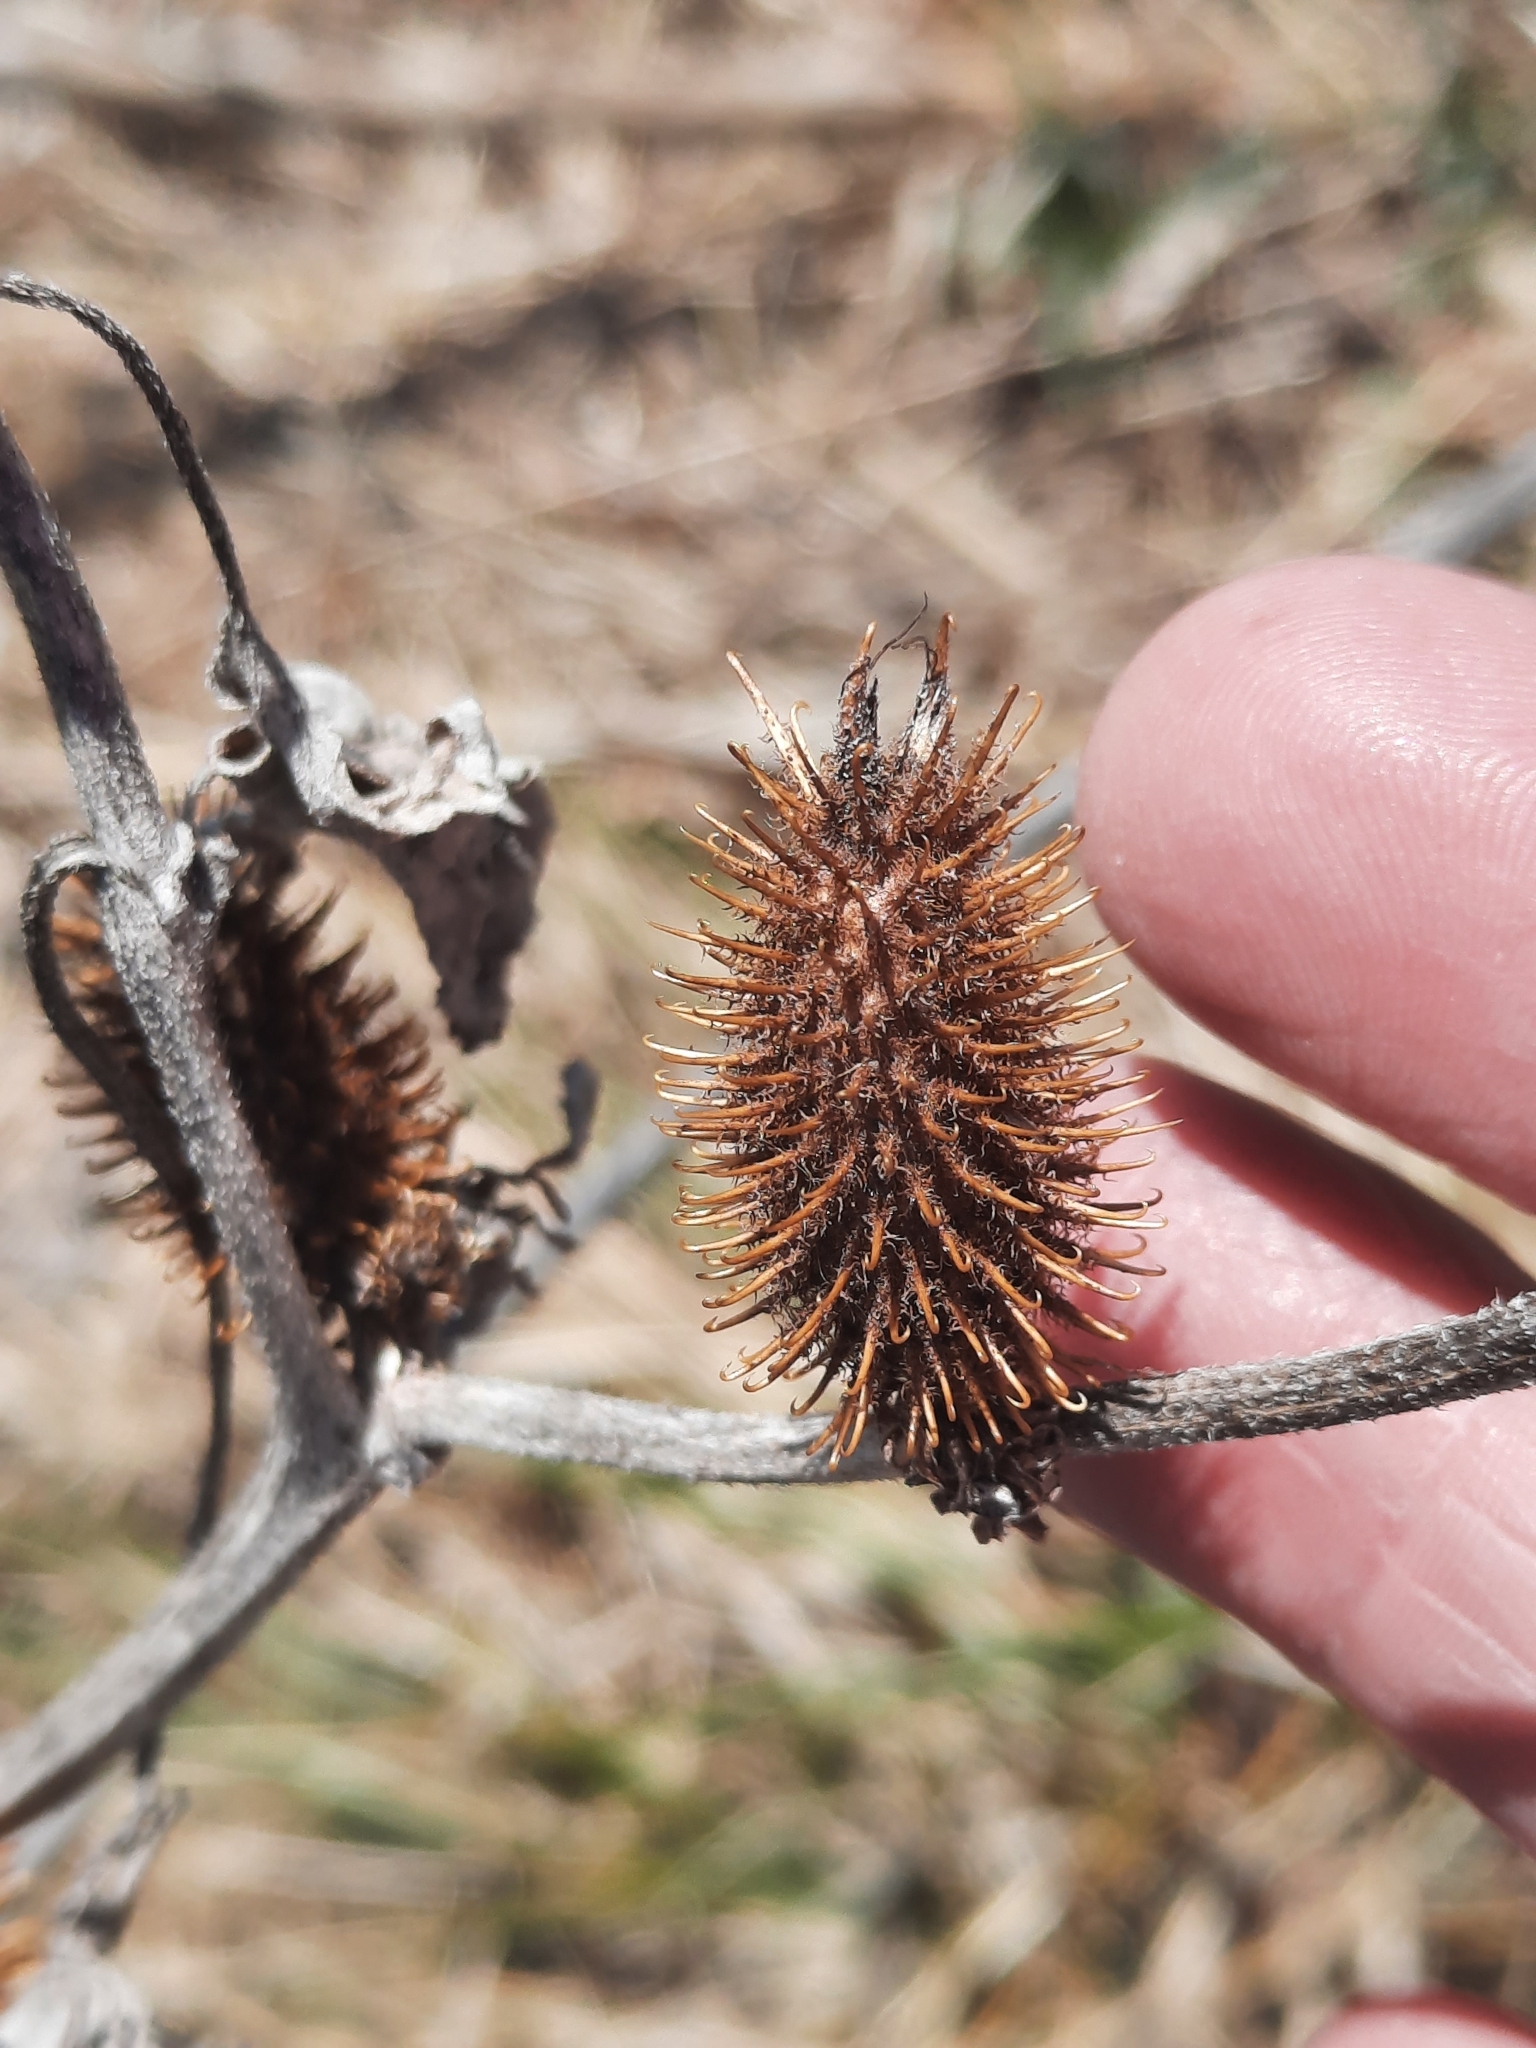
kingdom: Plantae
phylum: Tracheophyta
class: Magnoliopsida
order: Asterales
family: Asteraceae
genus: Xanthium
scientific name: Xanthium strumarium
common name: Rough cocklebur
